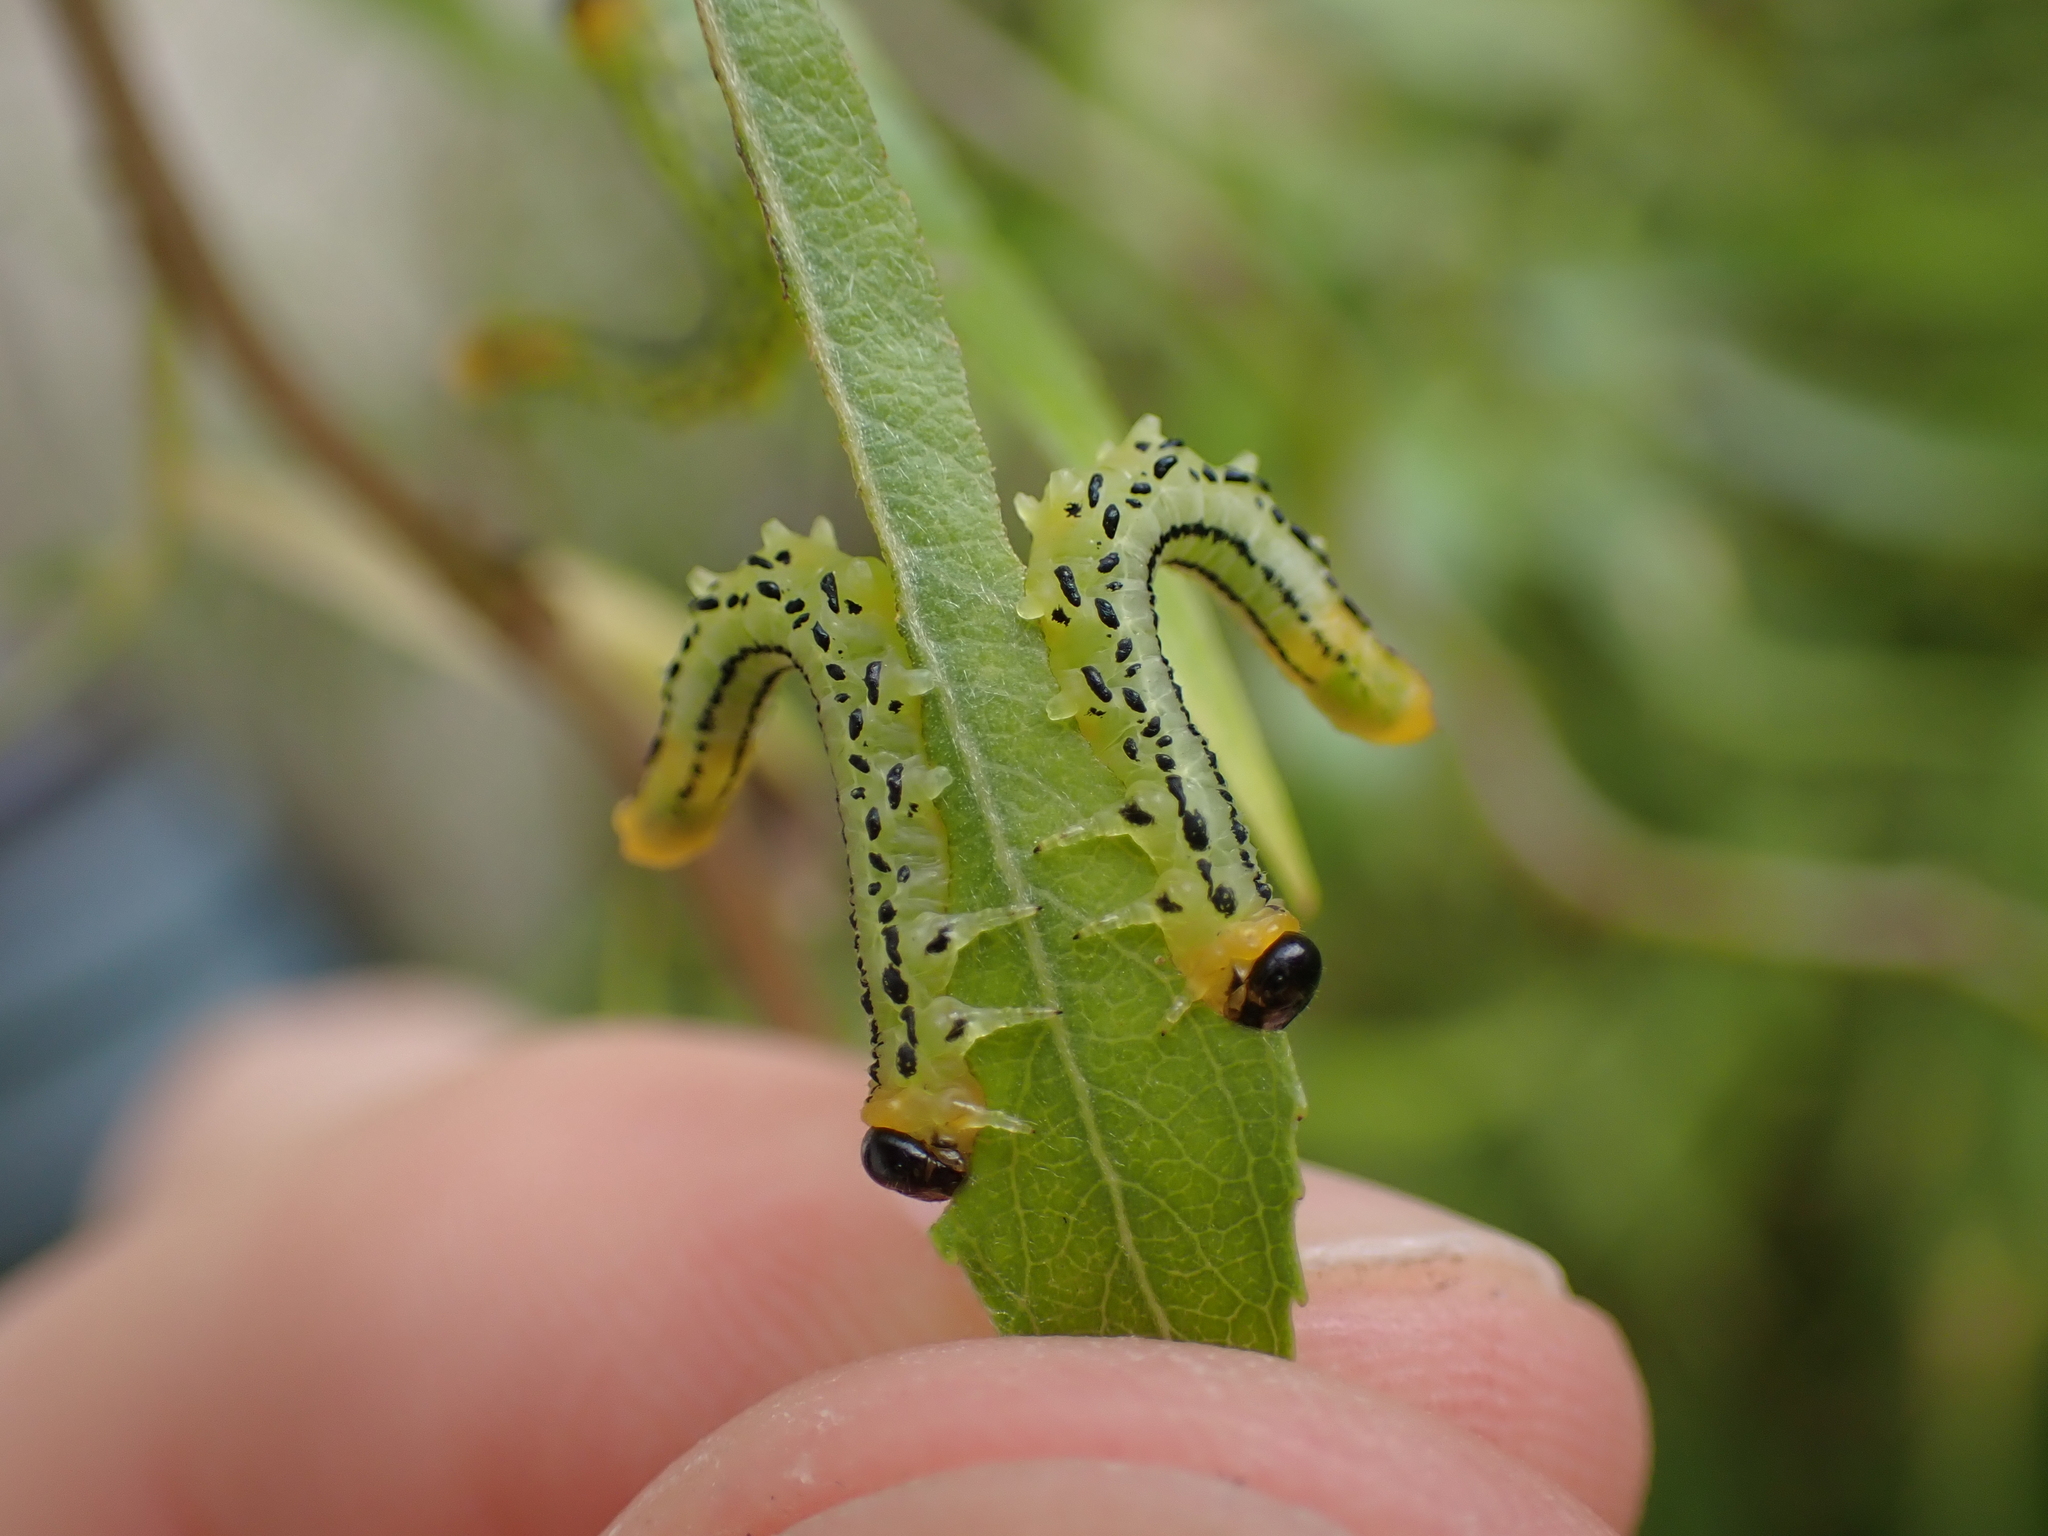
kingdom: Animalia
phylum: Arthropoda
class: Insecta
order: Hymenoptera
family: Tenthredinidae
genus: Nematus
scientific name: Nematus pavidus
